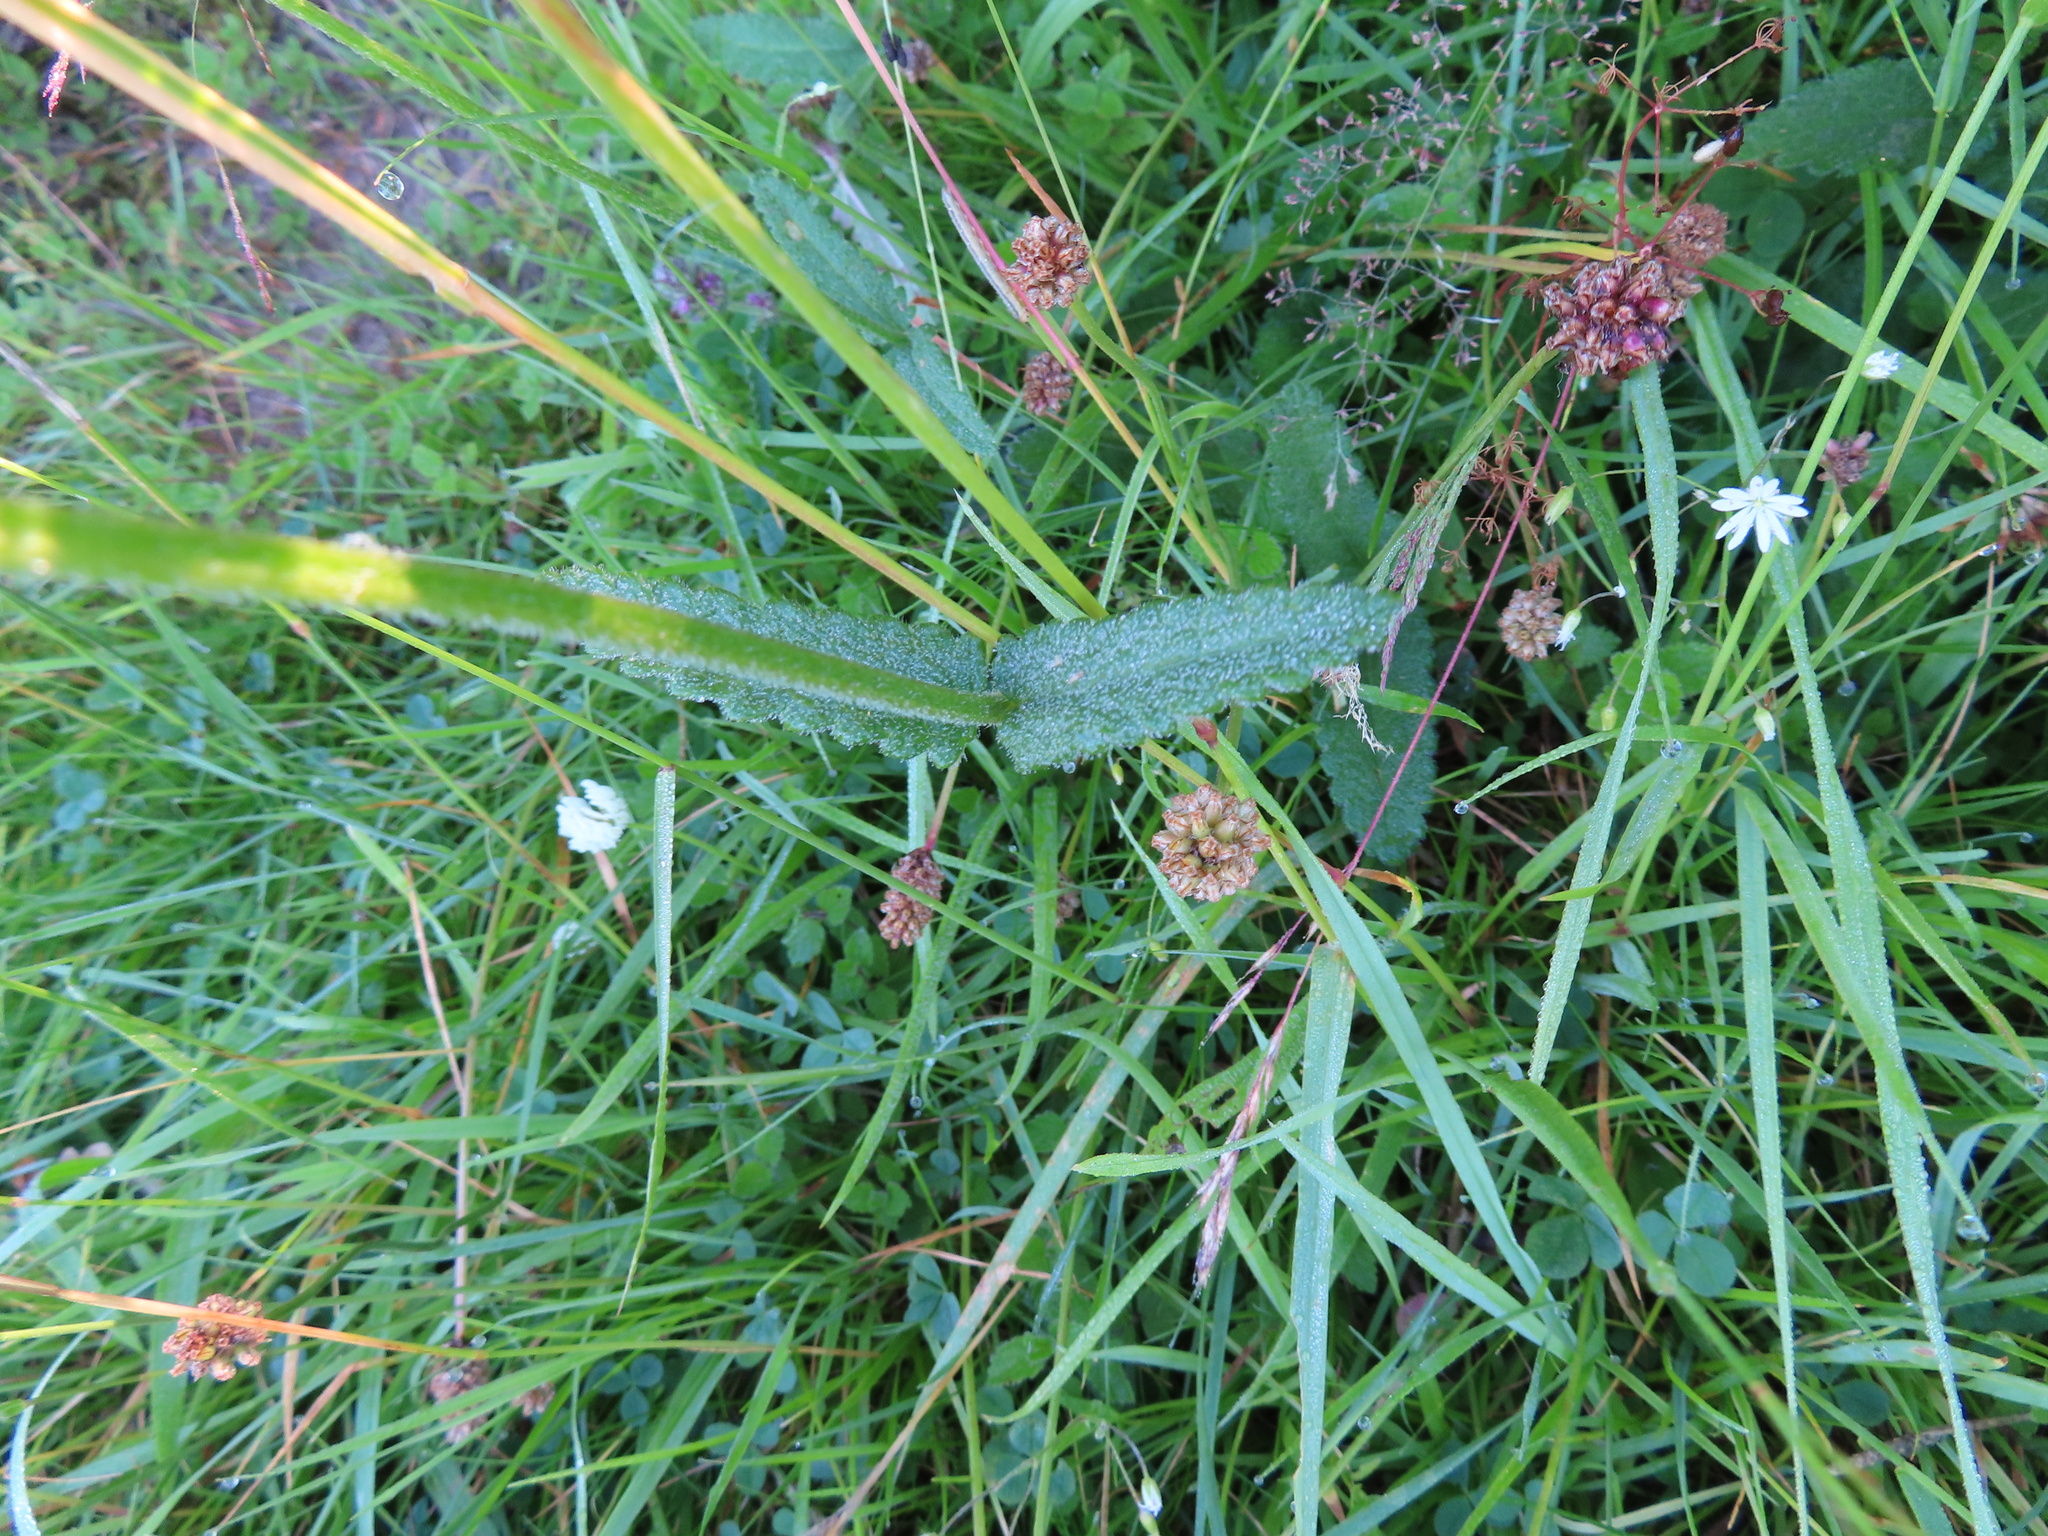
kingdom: Plantae
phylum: Tracheophyta
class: Magnoliopsida
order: Lamiales
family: Lamiaceae
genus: Betonica
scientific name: Betonica officinalis
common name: Bishop's-wort
